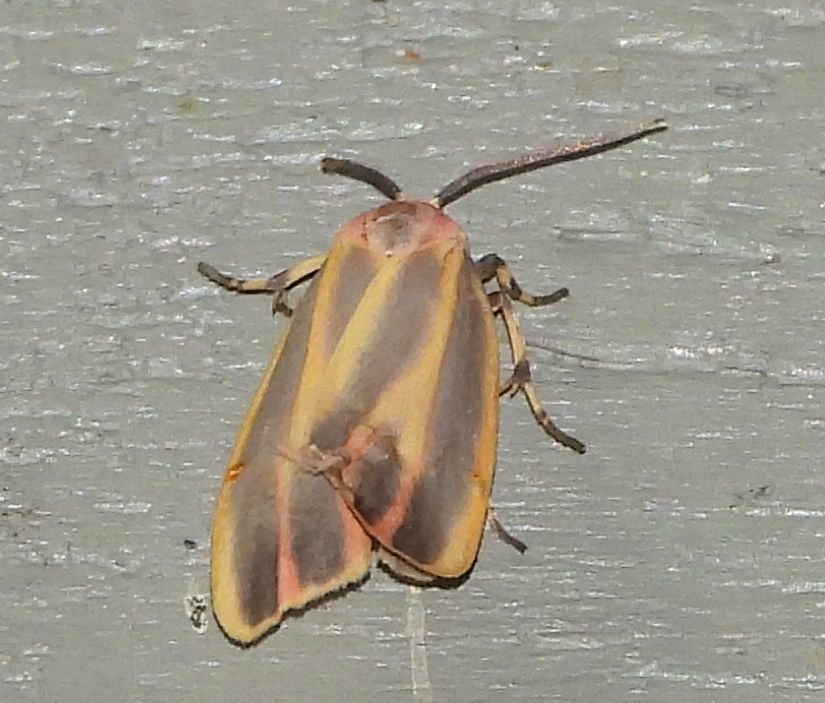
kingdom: Animalia
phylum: Arthropoda
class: Insecta
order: Lepidoptera
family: Erebidae
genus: Hypoprepia
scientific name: Hypoprepia fucosa
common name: Painted lichen moth
